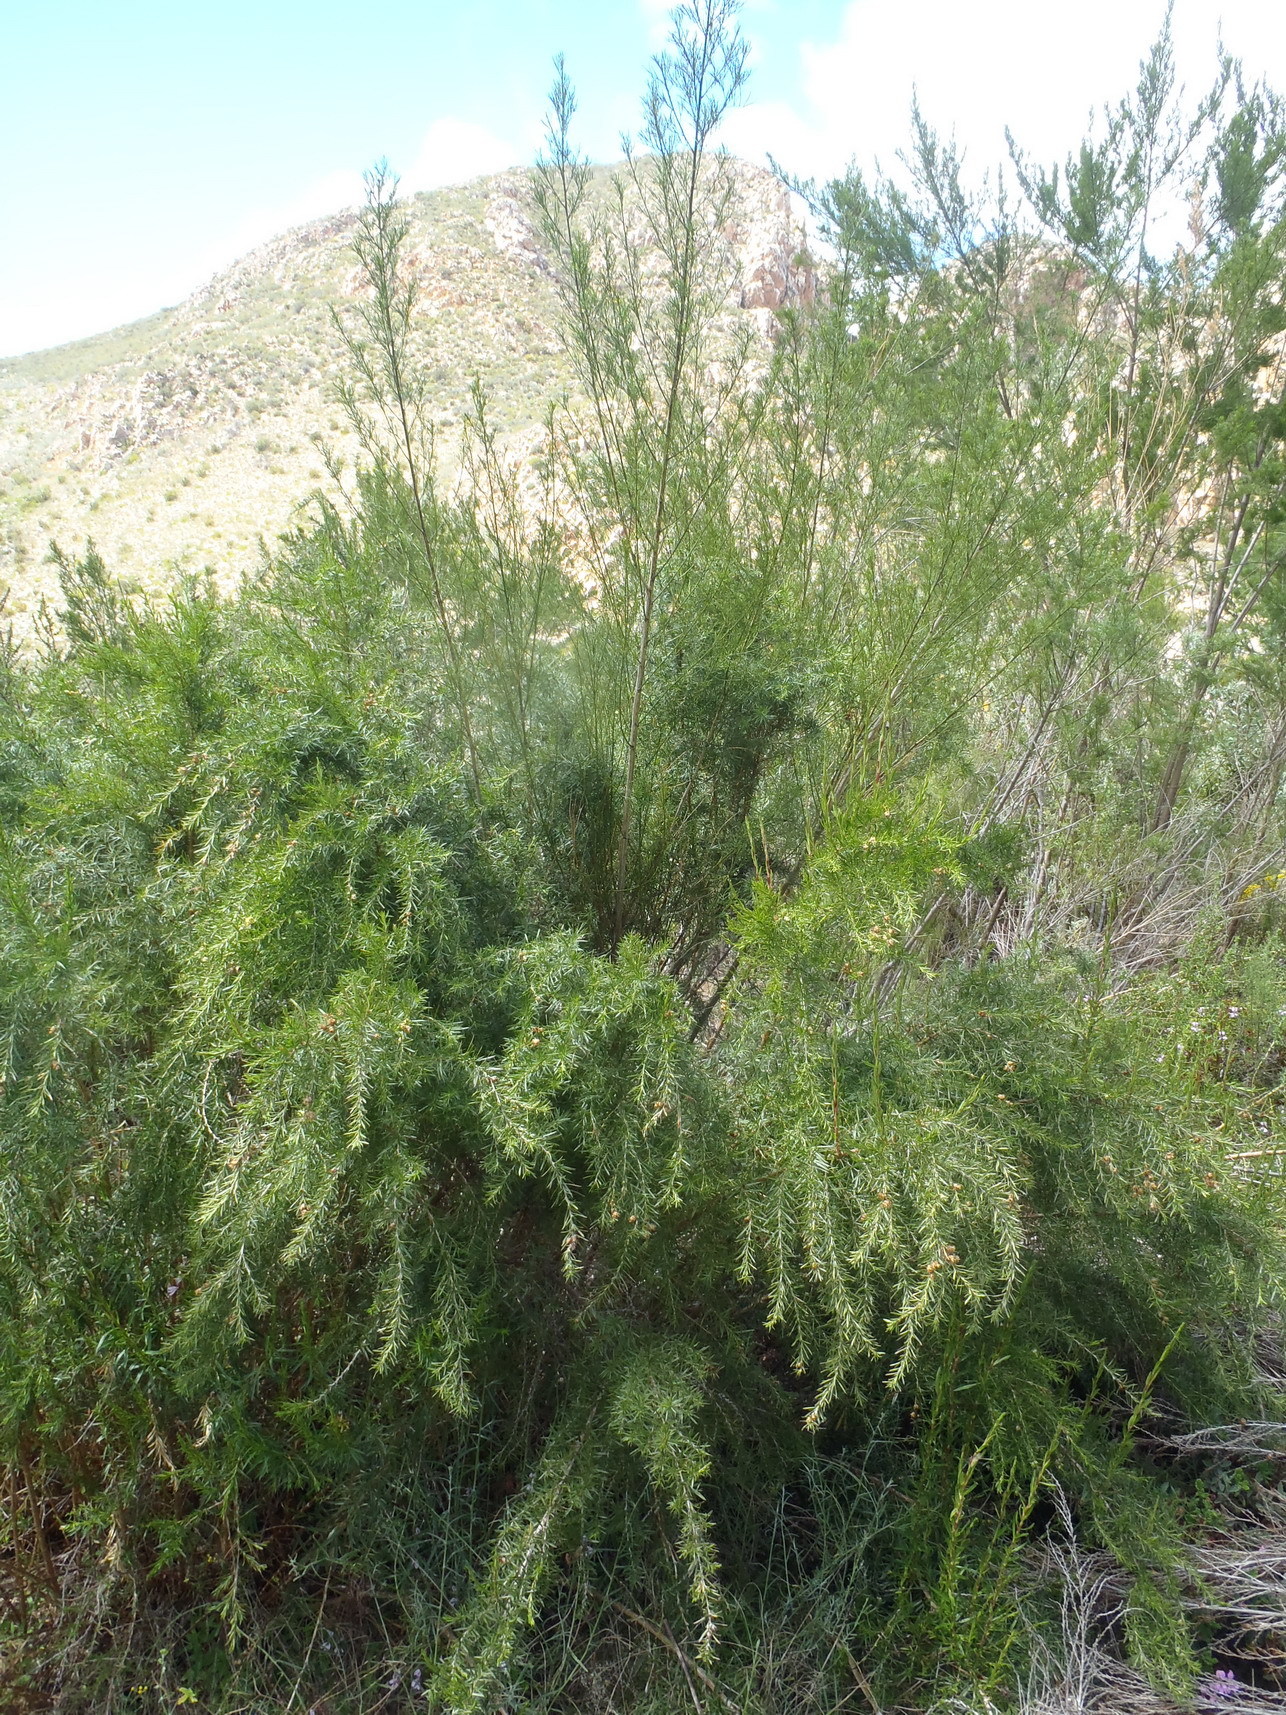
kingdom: Plantae
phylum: Tracheophyta
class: Magnoliopsida
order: Rosales
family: Rosaceae
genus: Cliffortia
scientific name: Cliffortia strobilifera
